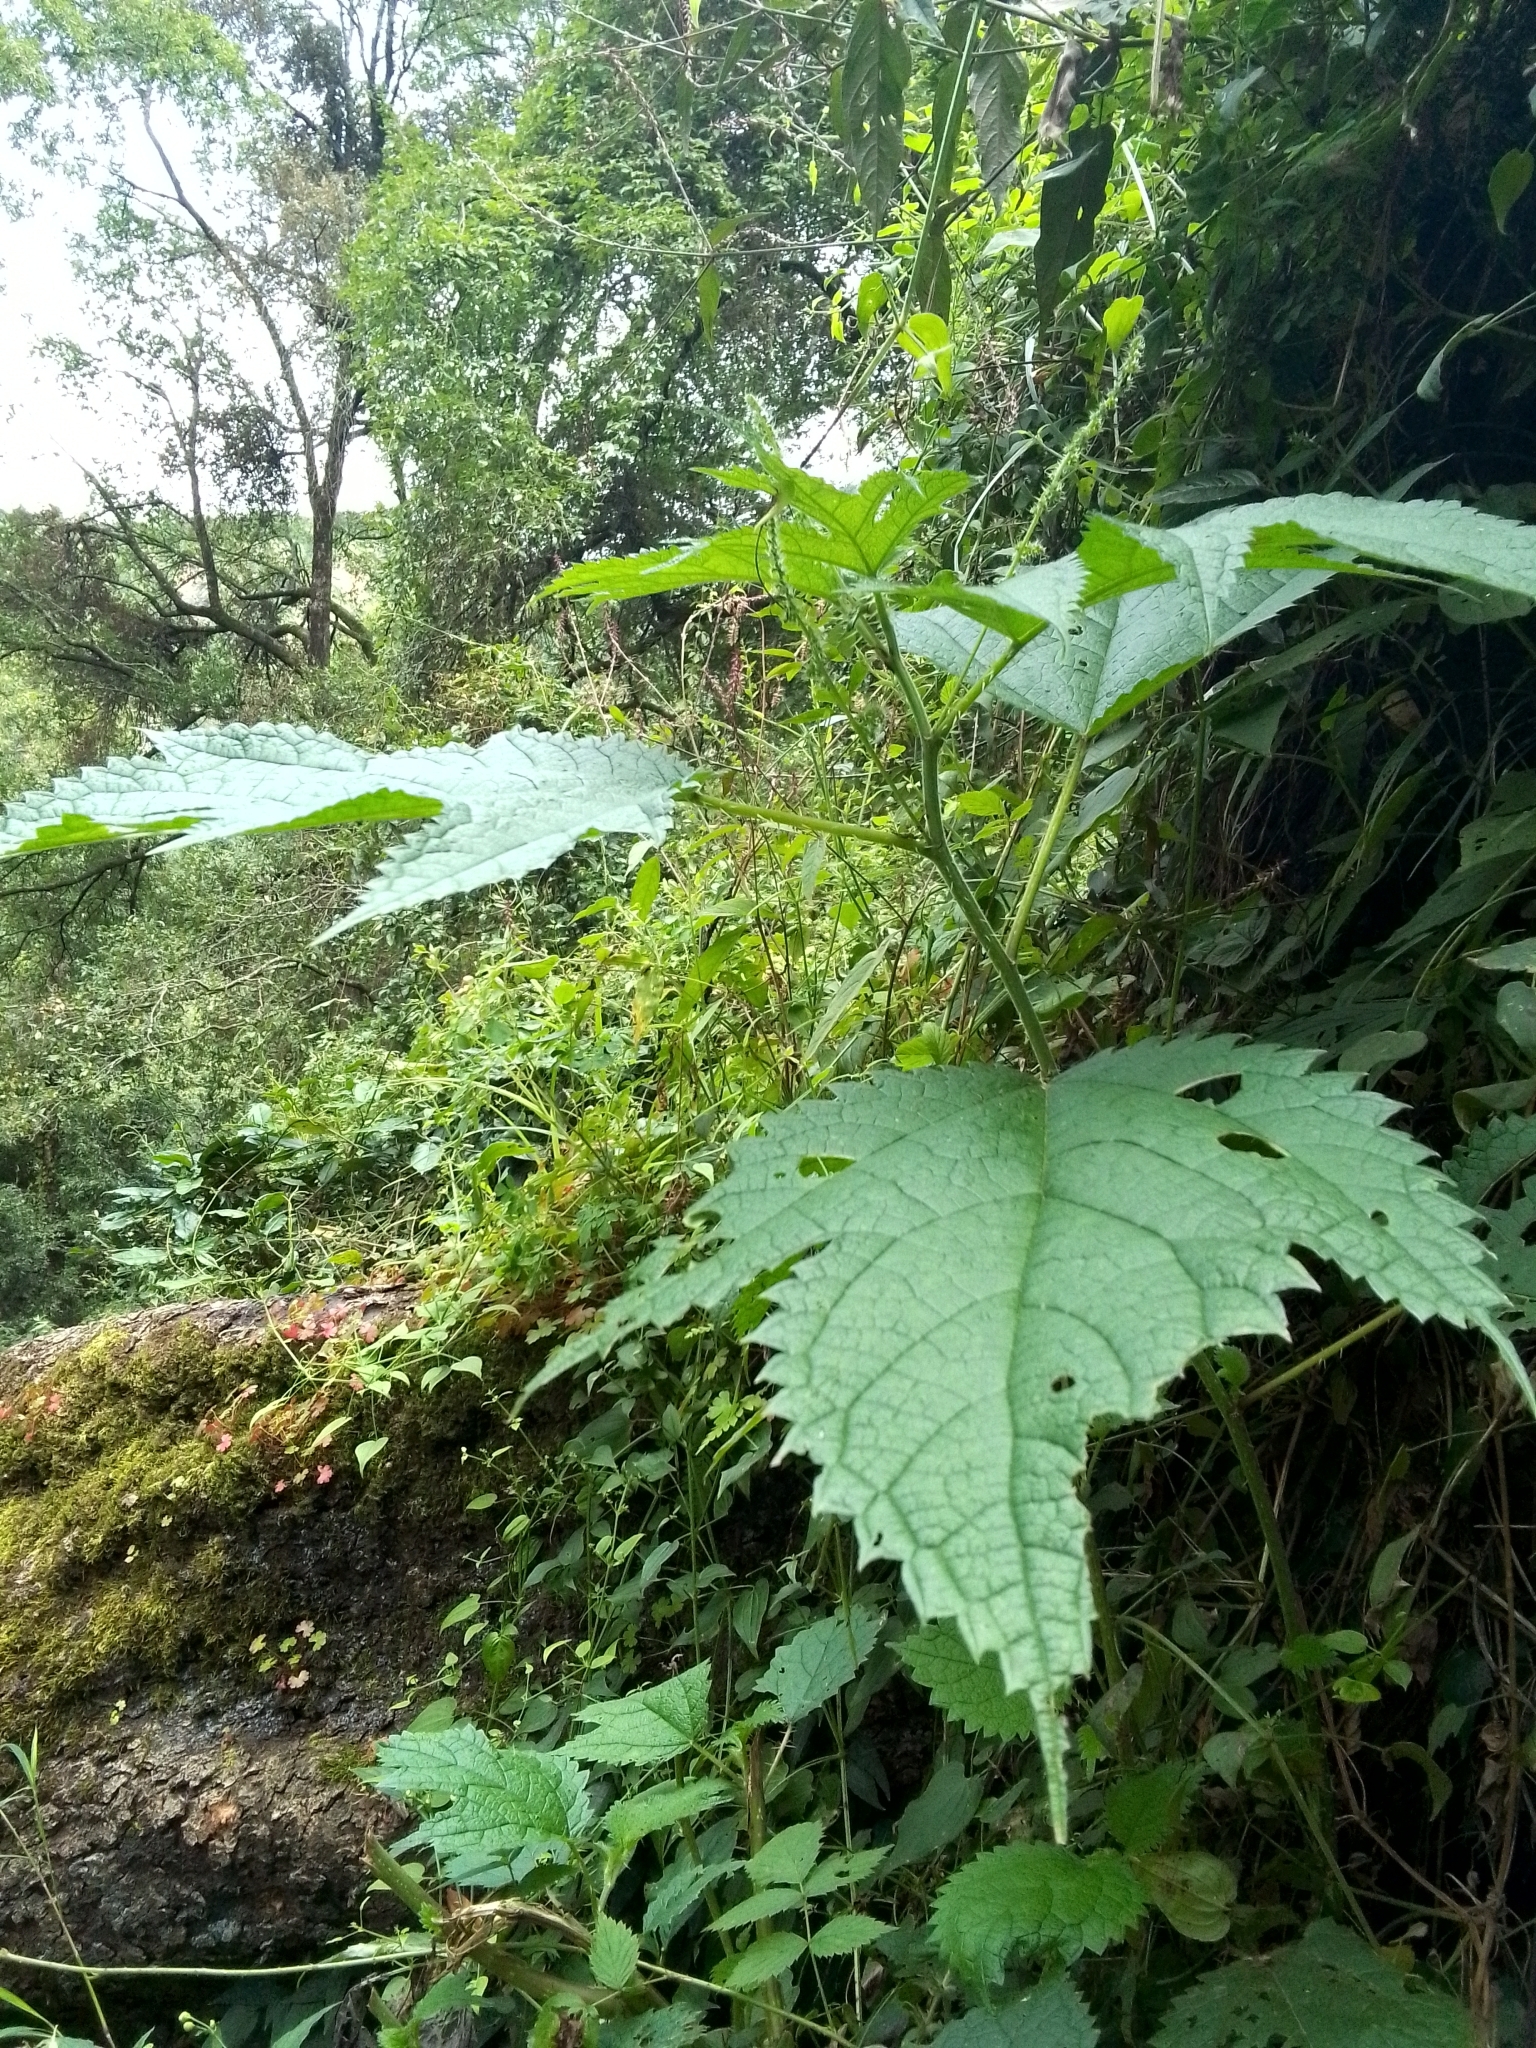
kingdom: Plantae
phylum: Tracheophyta
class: Magnoliopsida
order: Rosales
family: Urticaceae
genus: Urtica
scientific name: Urtica ardens
